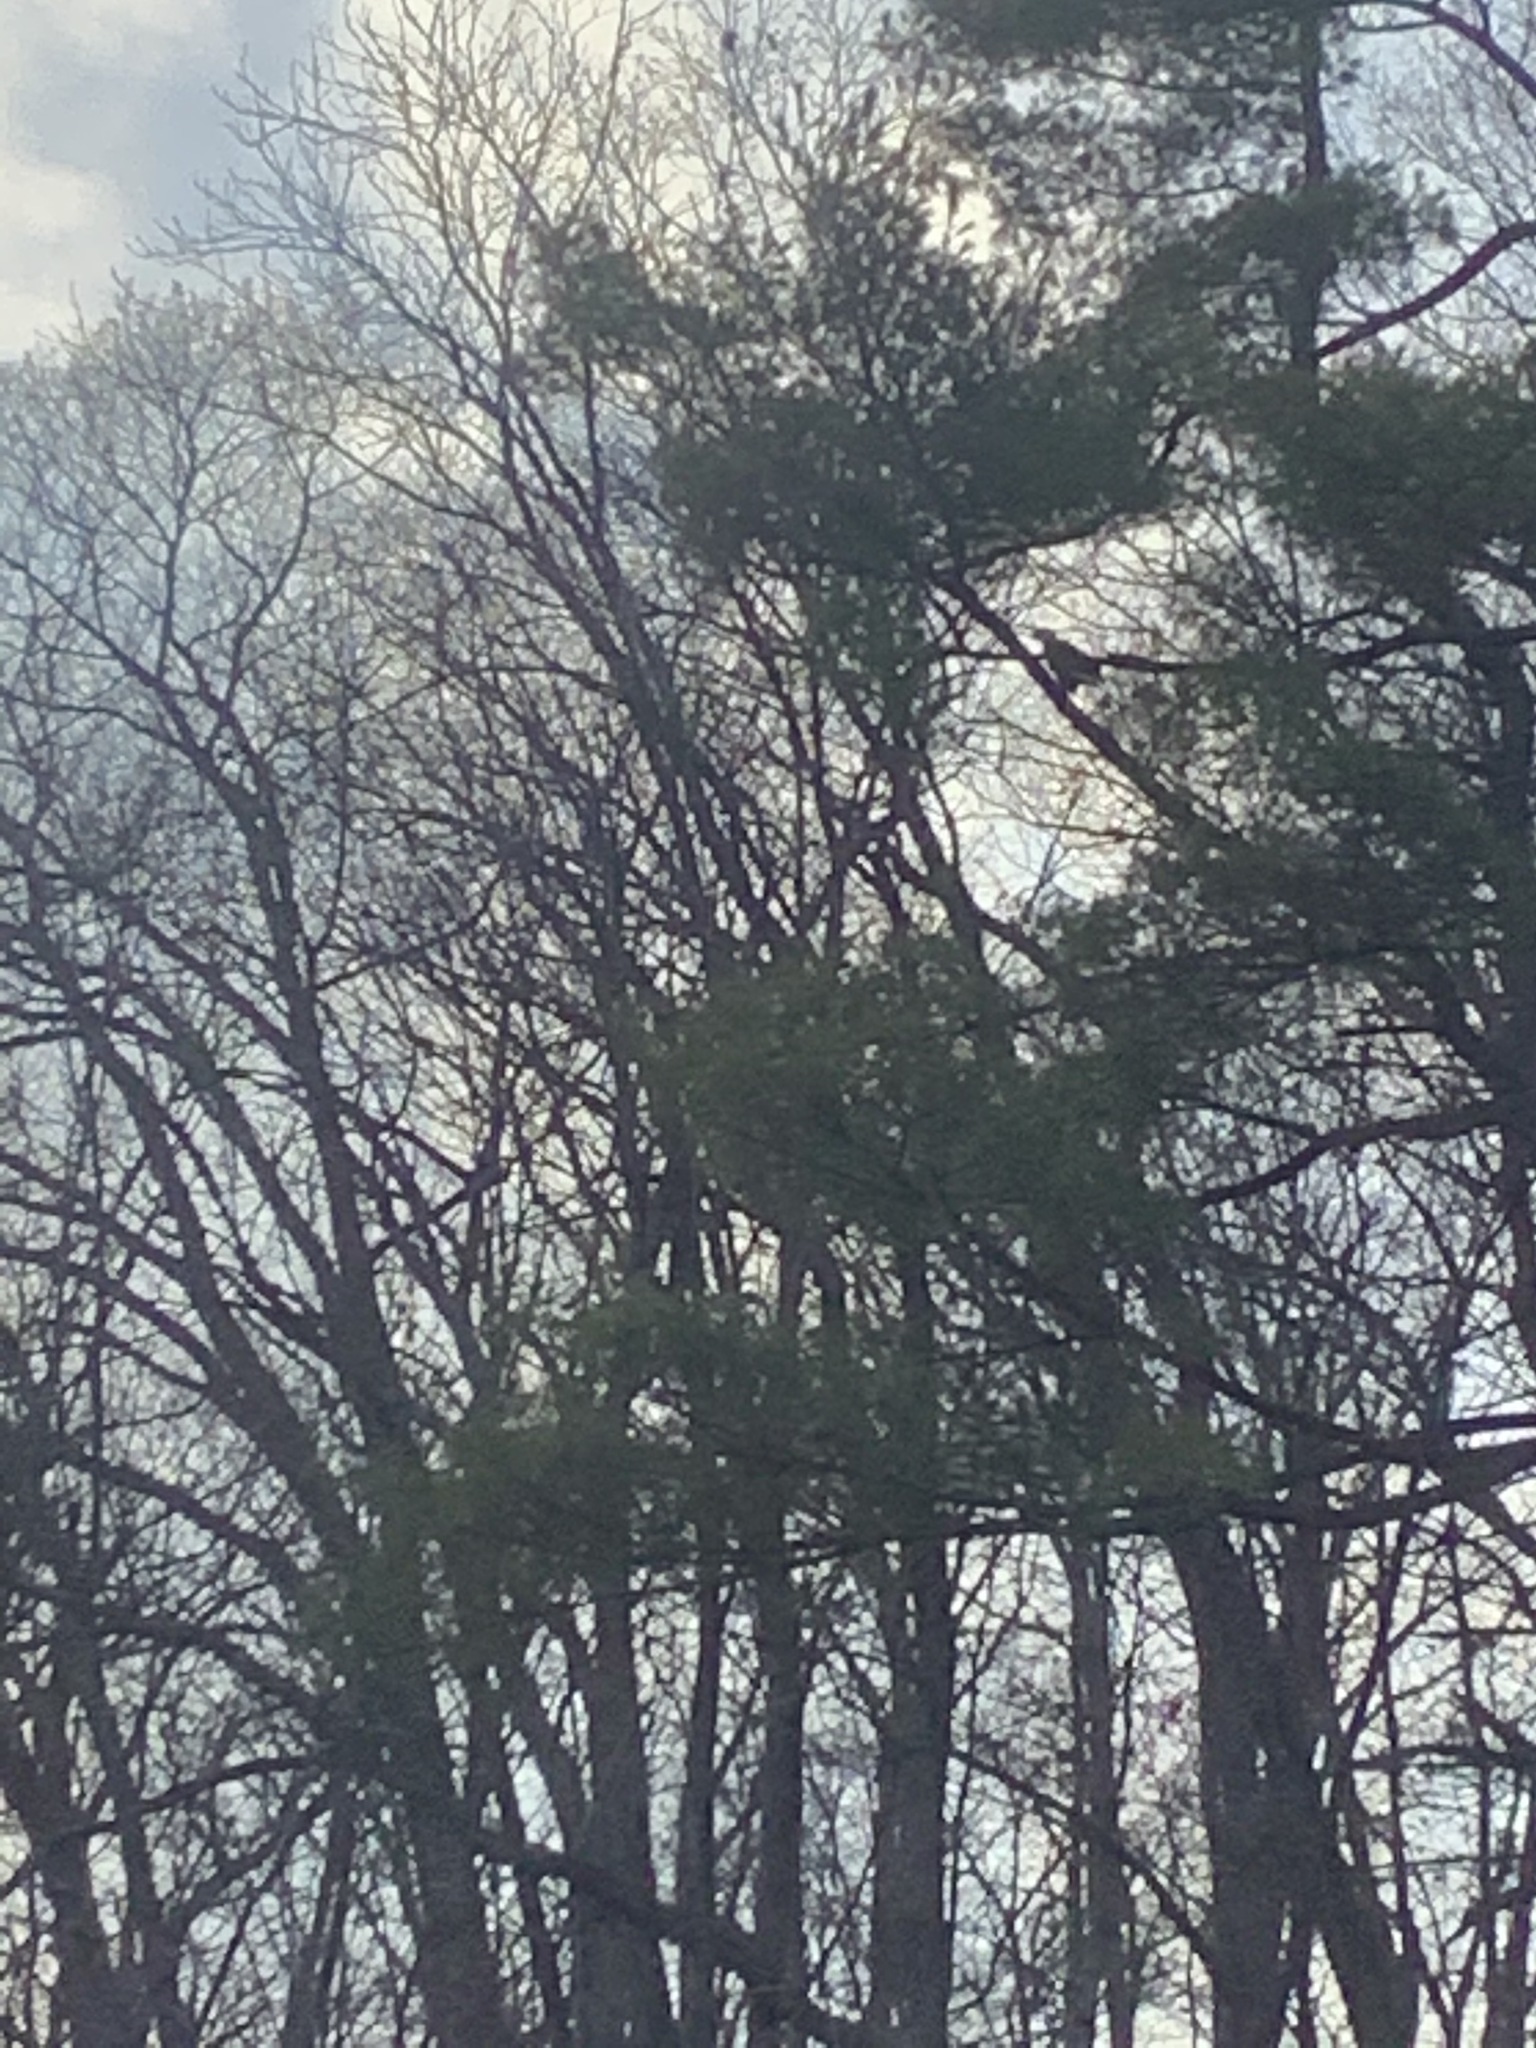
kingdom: Animalia
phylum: Chordata
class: Aves
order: Accipitriformes
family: Accipitridae
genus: Haliaeetus
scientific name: Haliaeetus leucocephalus
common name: Bald eagle
